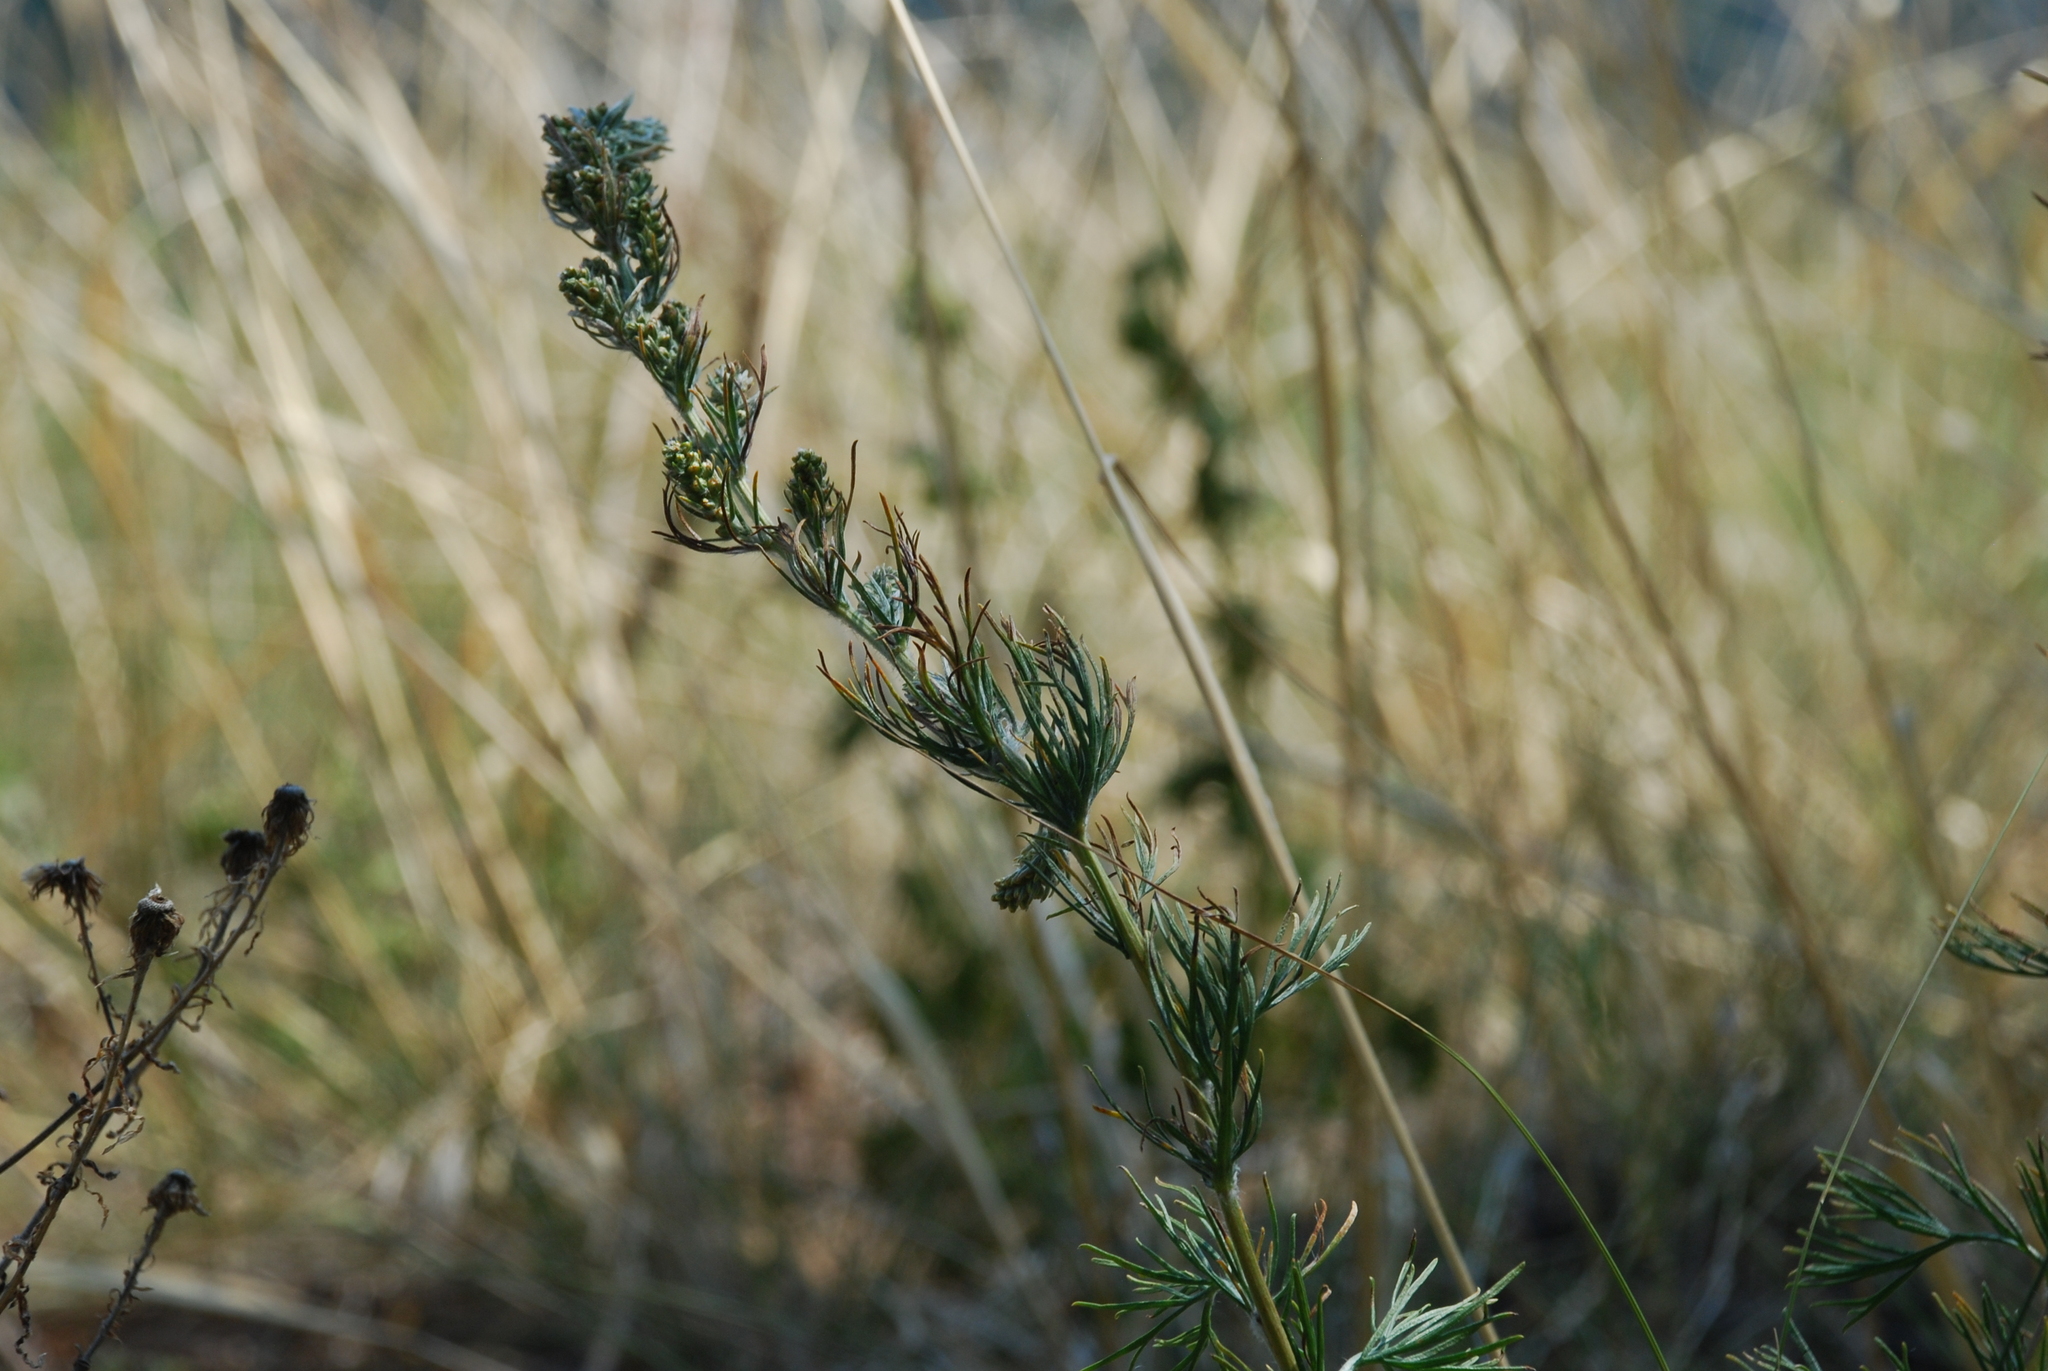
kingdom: Plantae
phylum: Tracheophyta
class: Magnoliopsida
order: Asterales
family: Asteraceae
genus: Artemisia
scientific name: Artemisia scoparia
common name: Redstem wormwood
